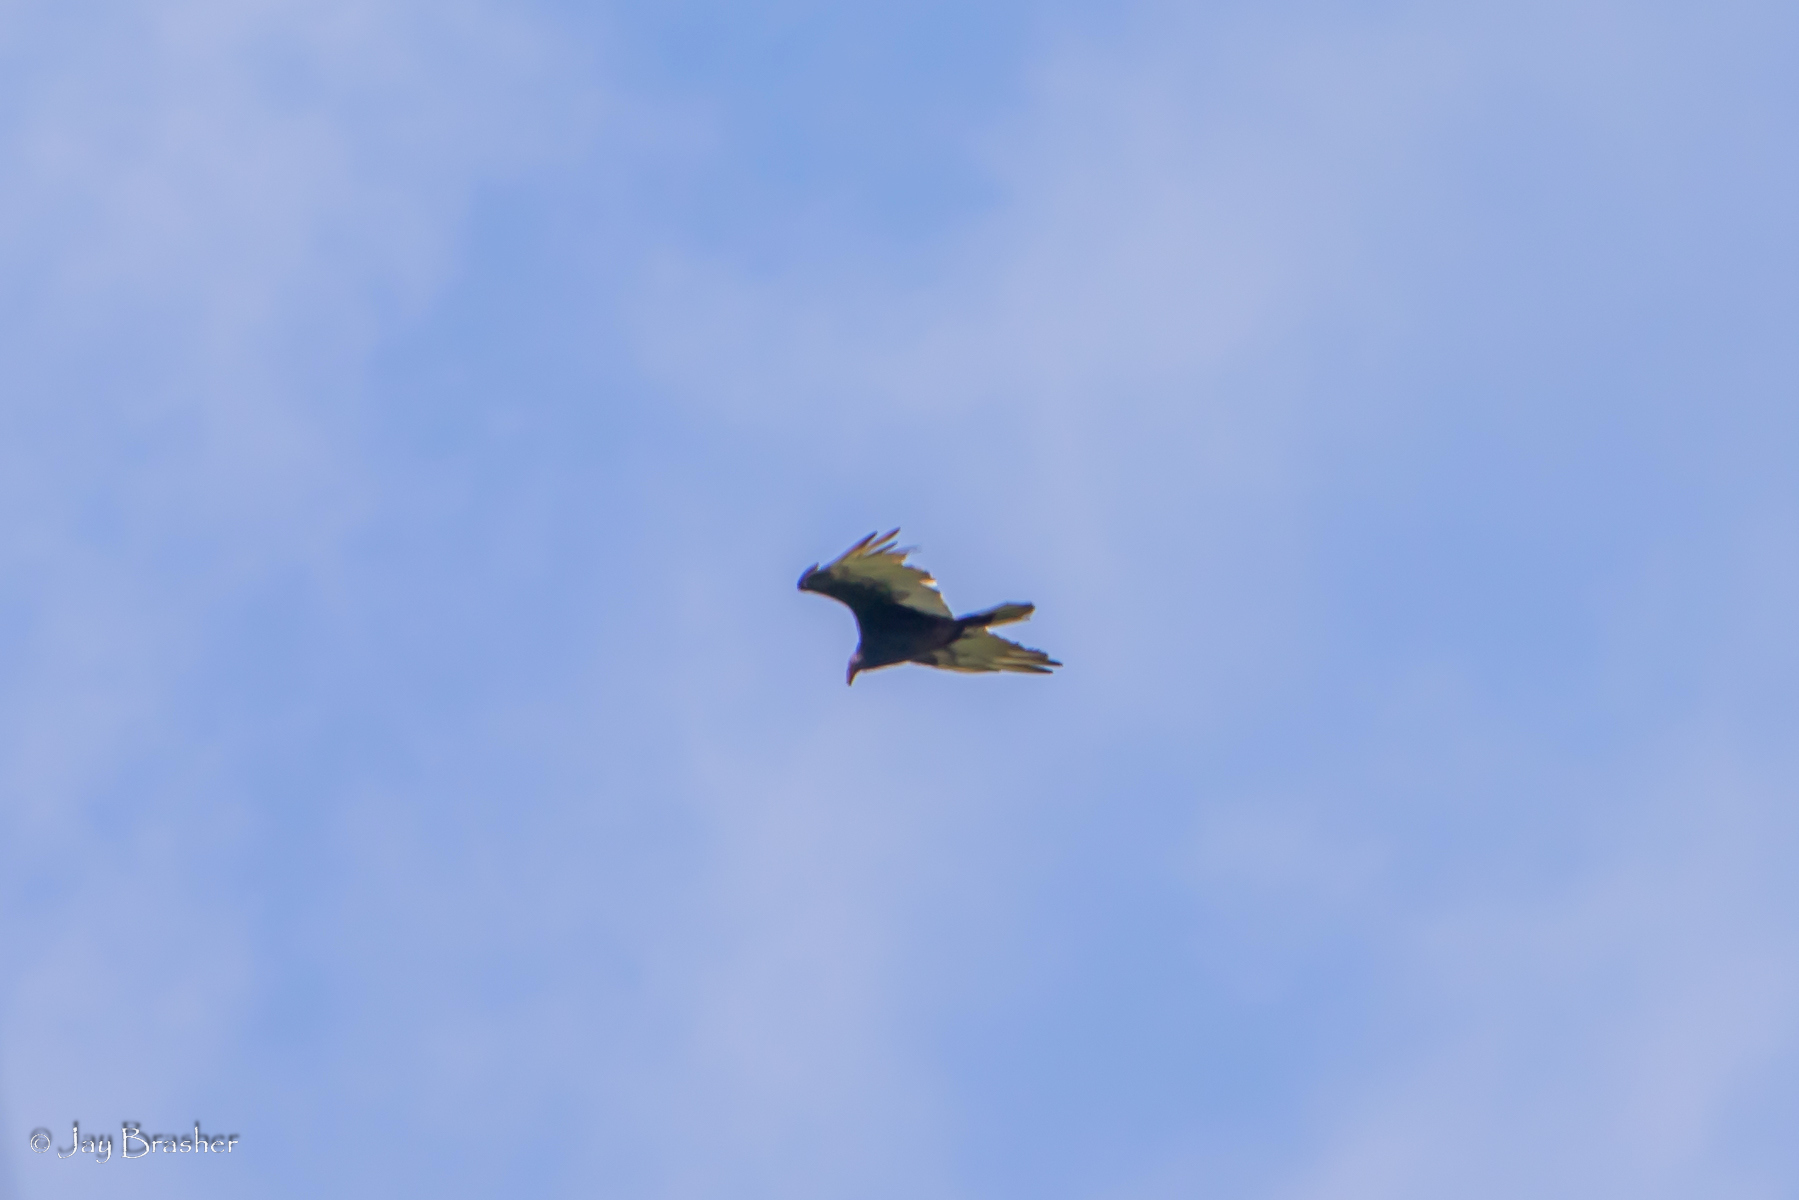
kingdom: Animalia
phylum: Chordata
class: Aves
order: Accipitriformes
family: Cathartidae
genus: Cathartes
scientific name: Cathartes aura
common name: Turkey vulture
